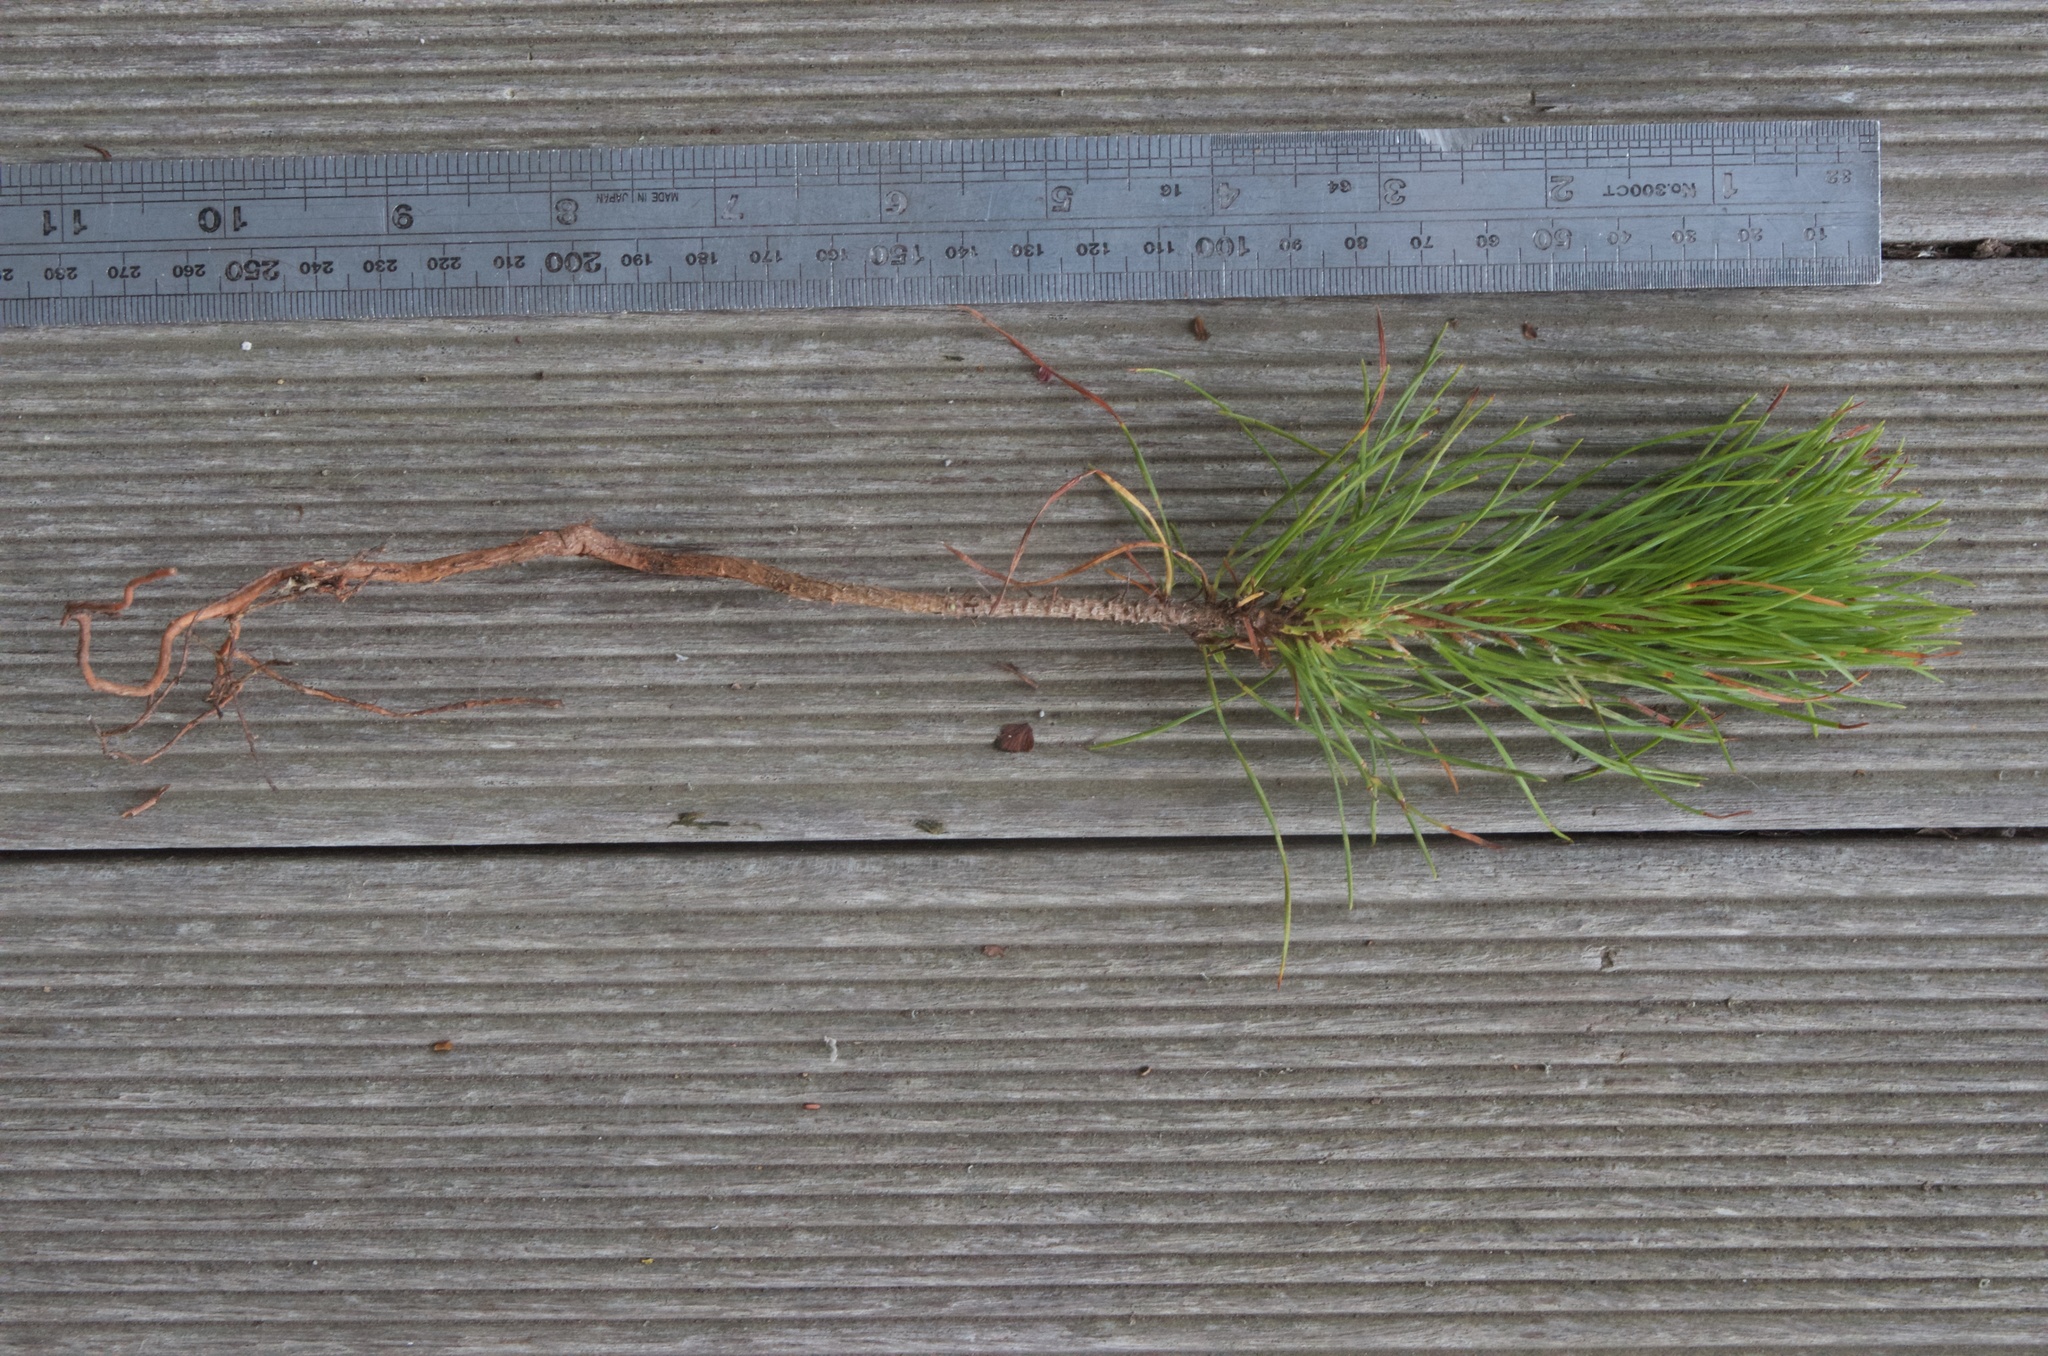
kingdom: Plantae
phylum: Tracheophyta
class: Pinopsida
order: Pinales
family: Pinaceae
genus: Pinus
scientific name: Pinus radiata
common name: Monterey pine
